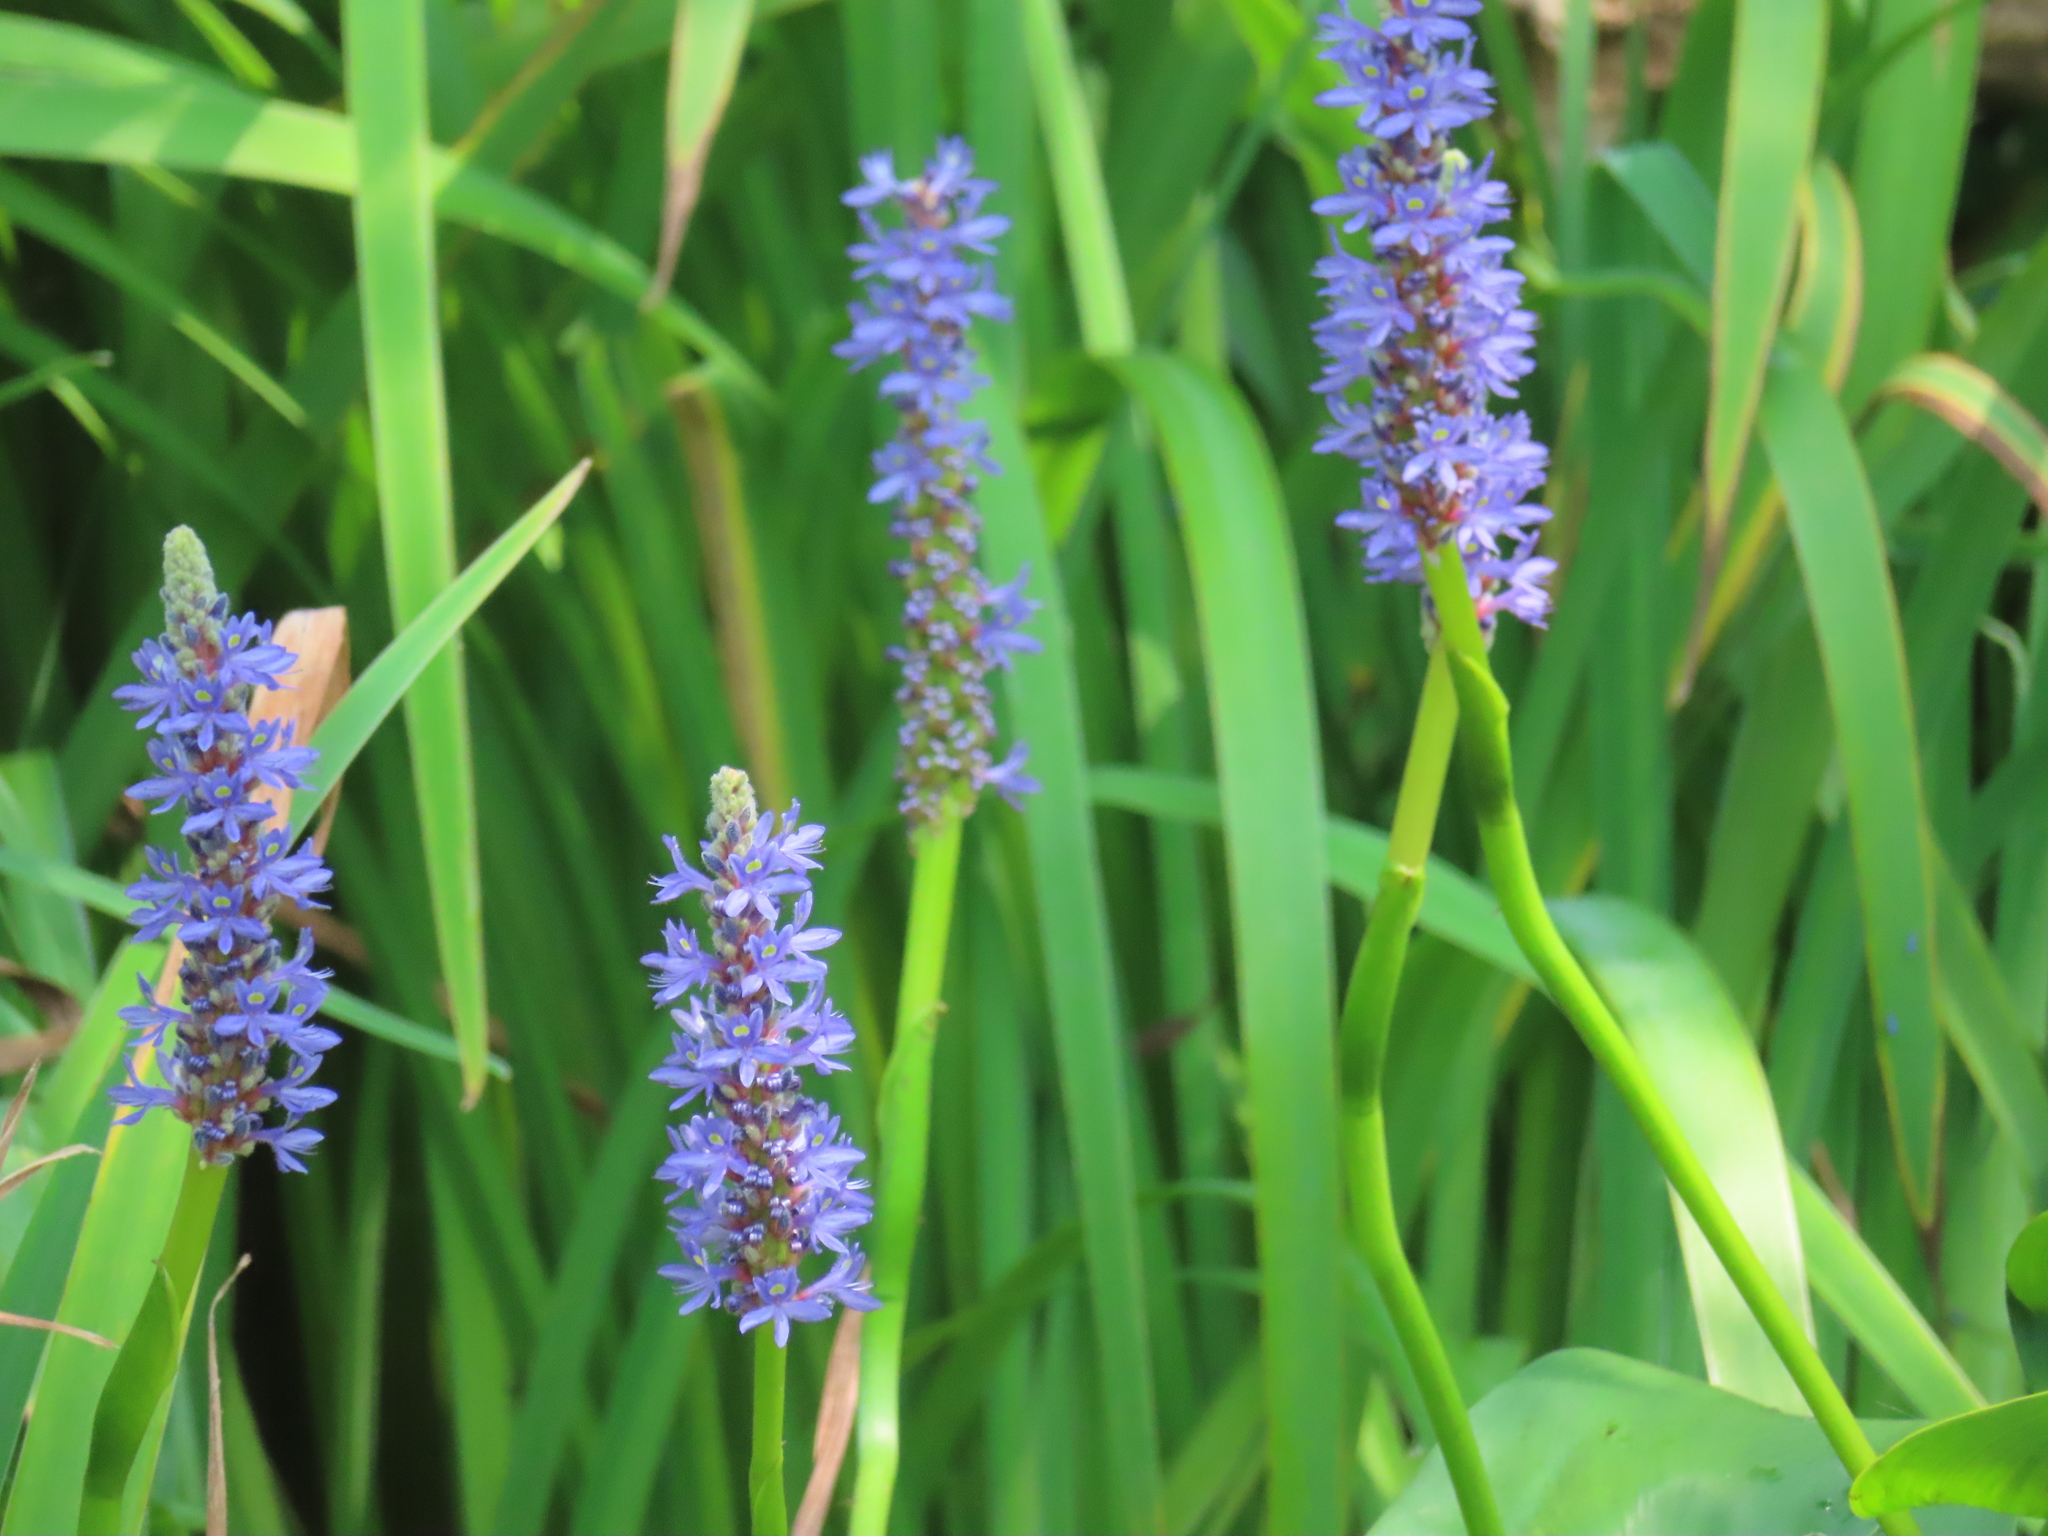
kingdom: Plantae
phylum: Tracheophyta
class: Liliopsida
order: Commelinales
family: Pontederiaceae
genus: Pontederia
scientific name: Pontederia cordata
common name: Pickerelweed
